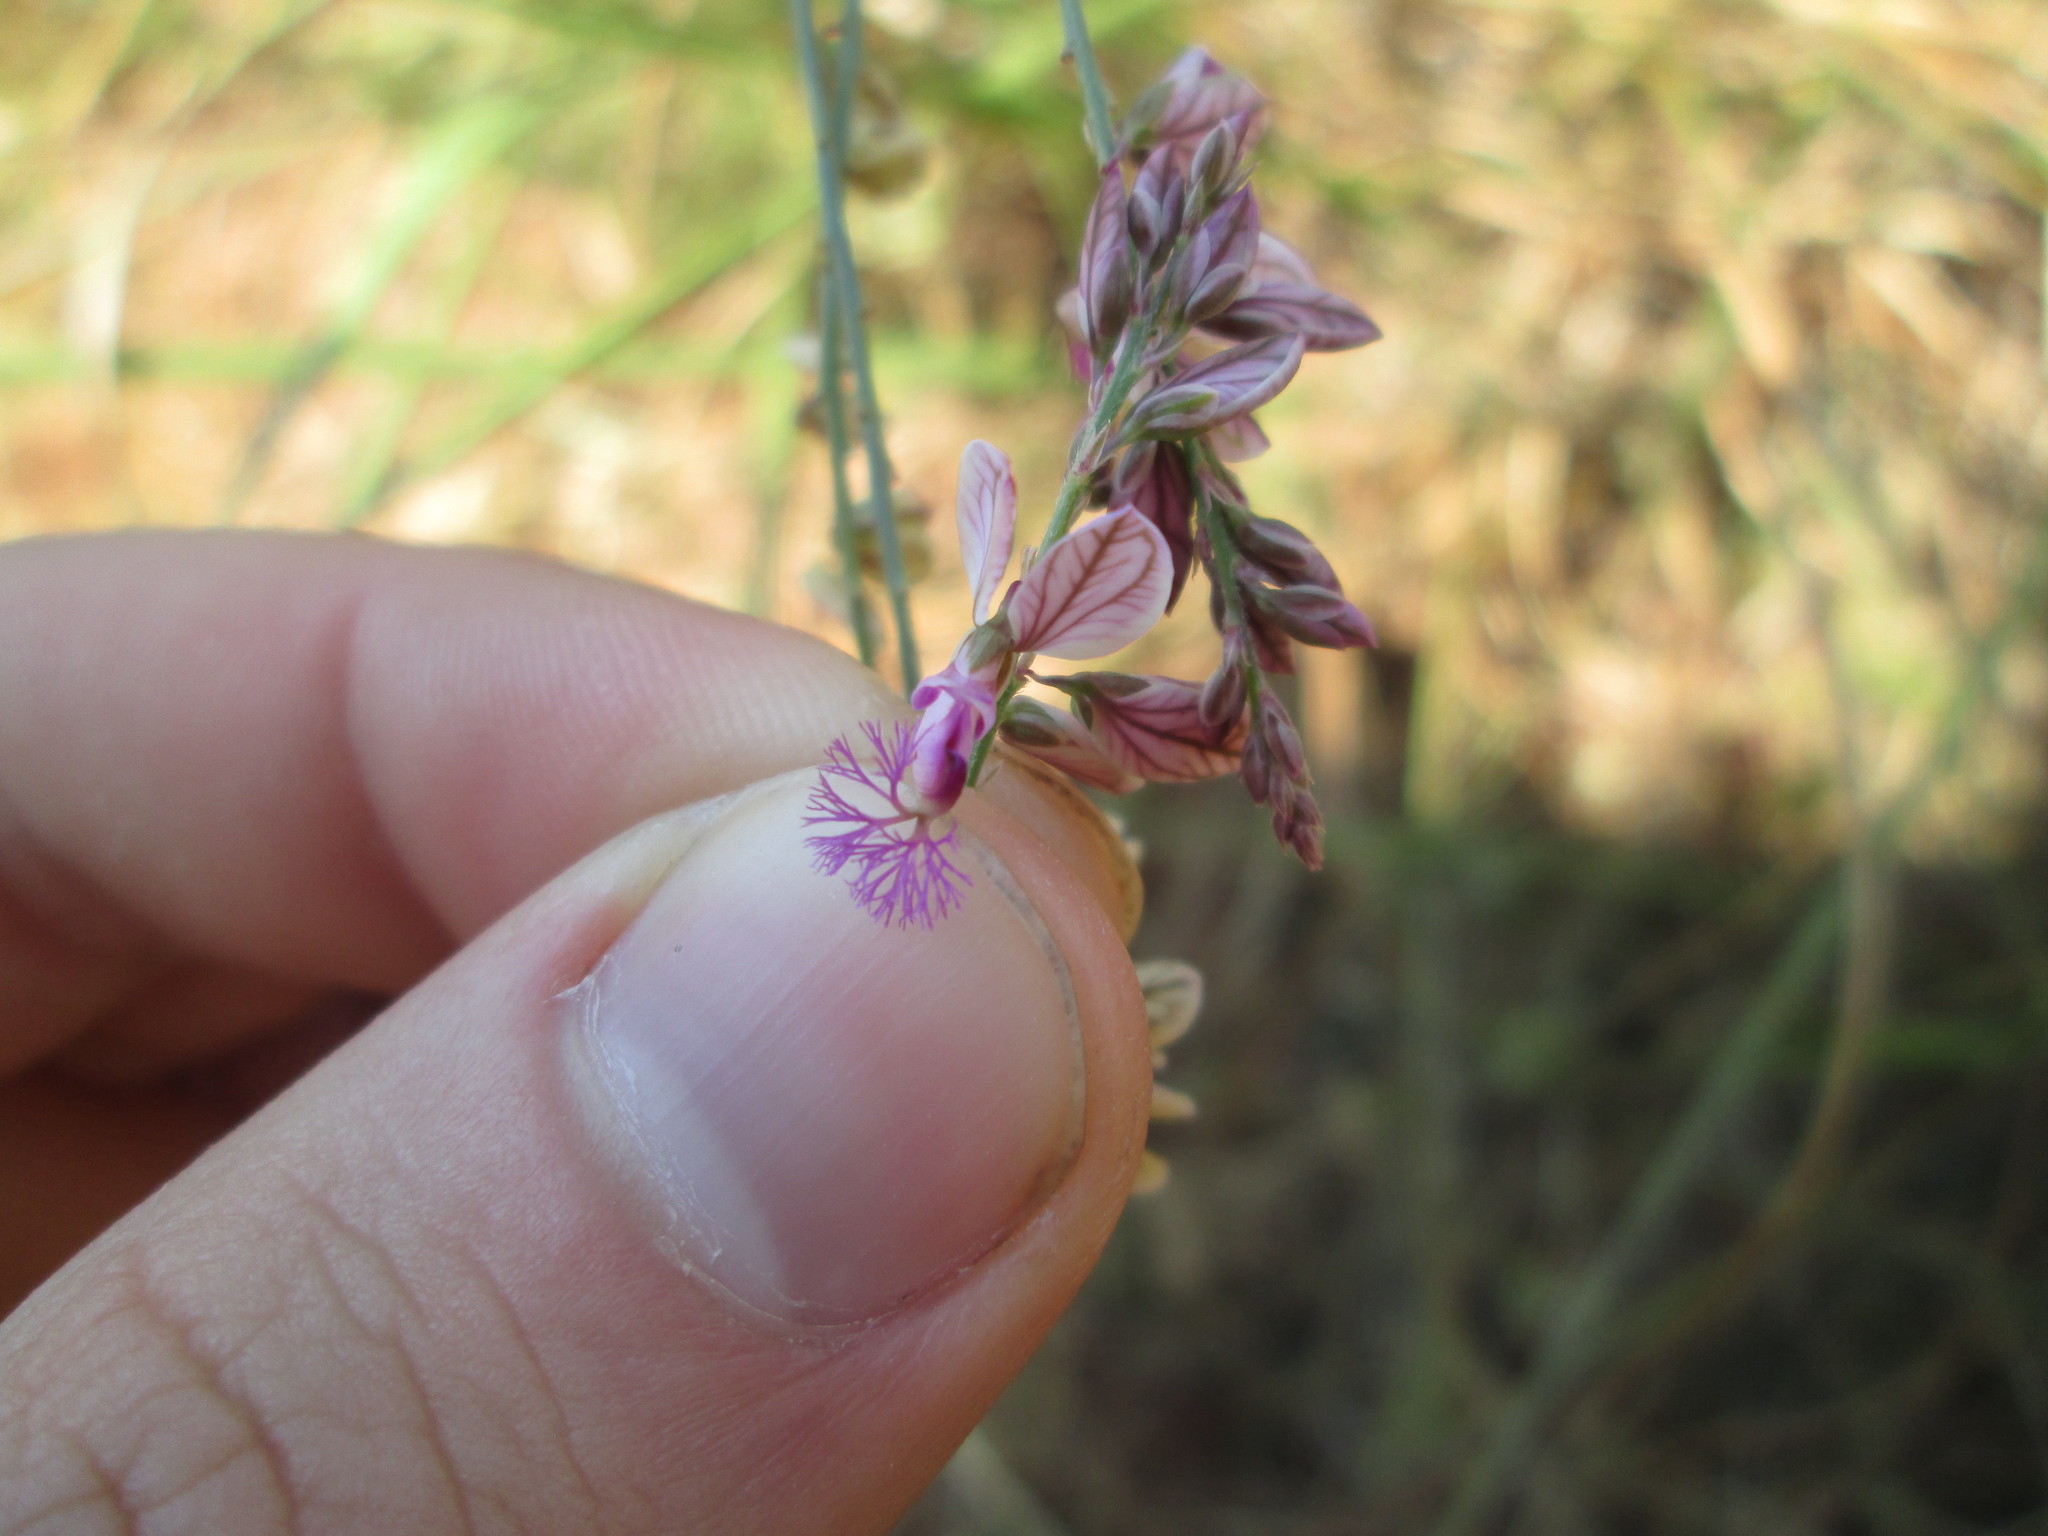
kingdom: Plantae
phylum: Tracheophyta
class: Magnoliopsida
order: Fabales
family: Polygalaceae
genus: Polygala
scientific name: Polygala hottentotta
